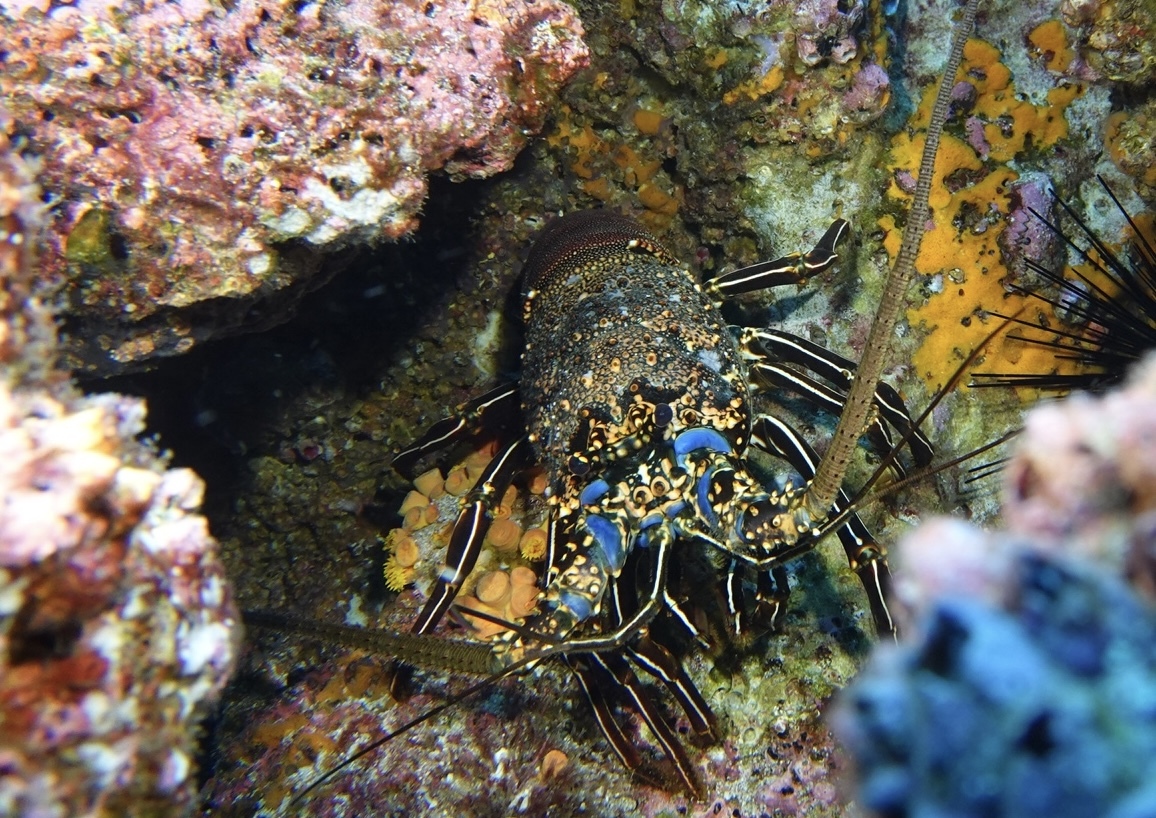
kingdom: Animalia
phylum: Arthropoda
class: Malacostraca
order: Decapoda
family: Palinuridae
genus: Panulirus
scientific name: Panulirus penicillatus
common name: Pronghorn spiny lobster
